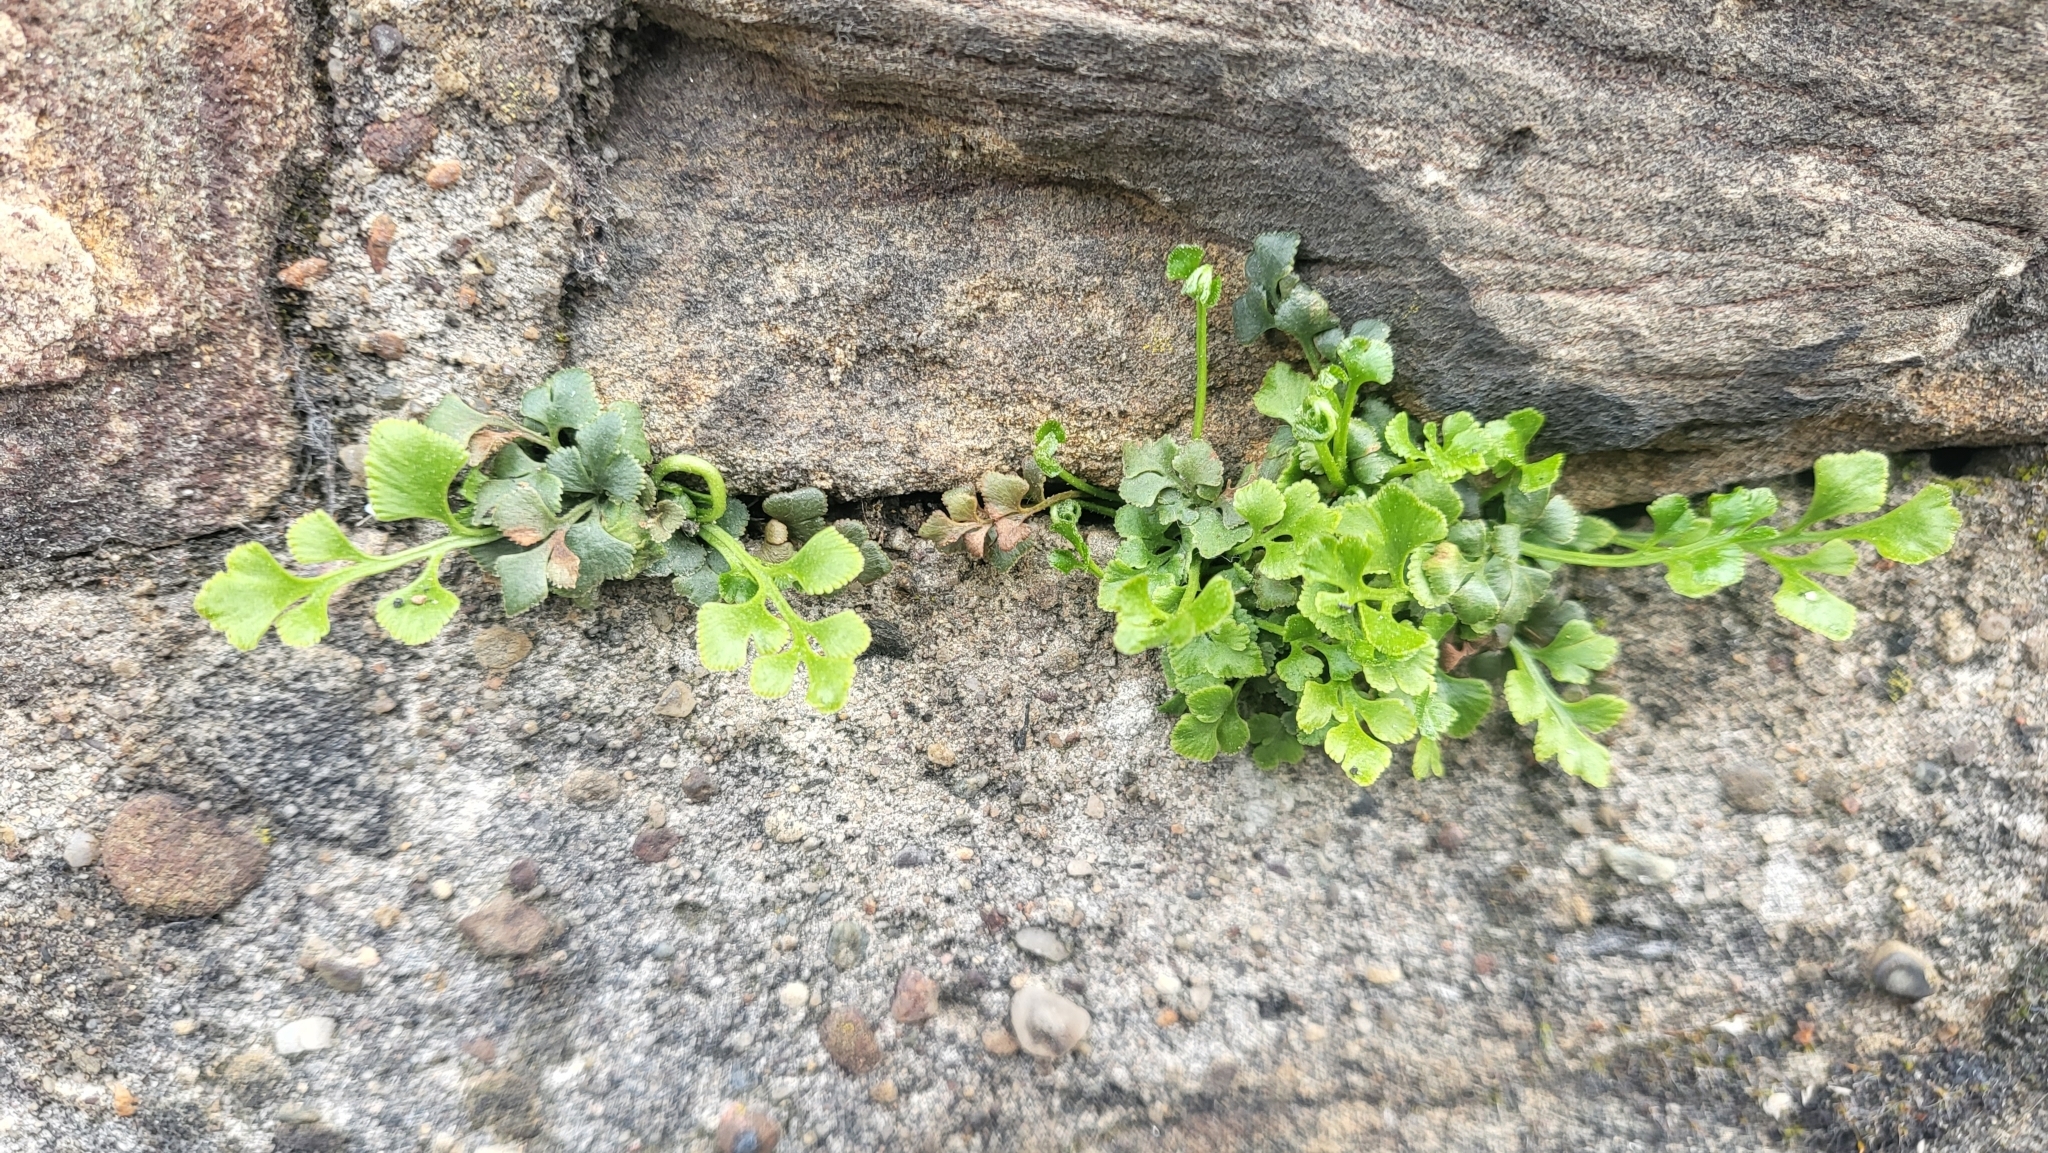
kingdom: Plantae
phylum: Tracheophyta
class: Polypodiopsida
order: Polypodiales
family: Aspleniaceae
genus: Asplenium
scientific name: Asplenium ruta-muraria
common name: Wall-rue
